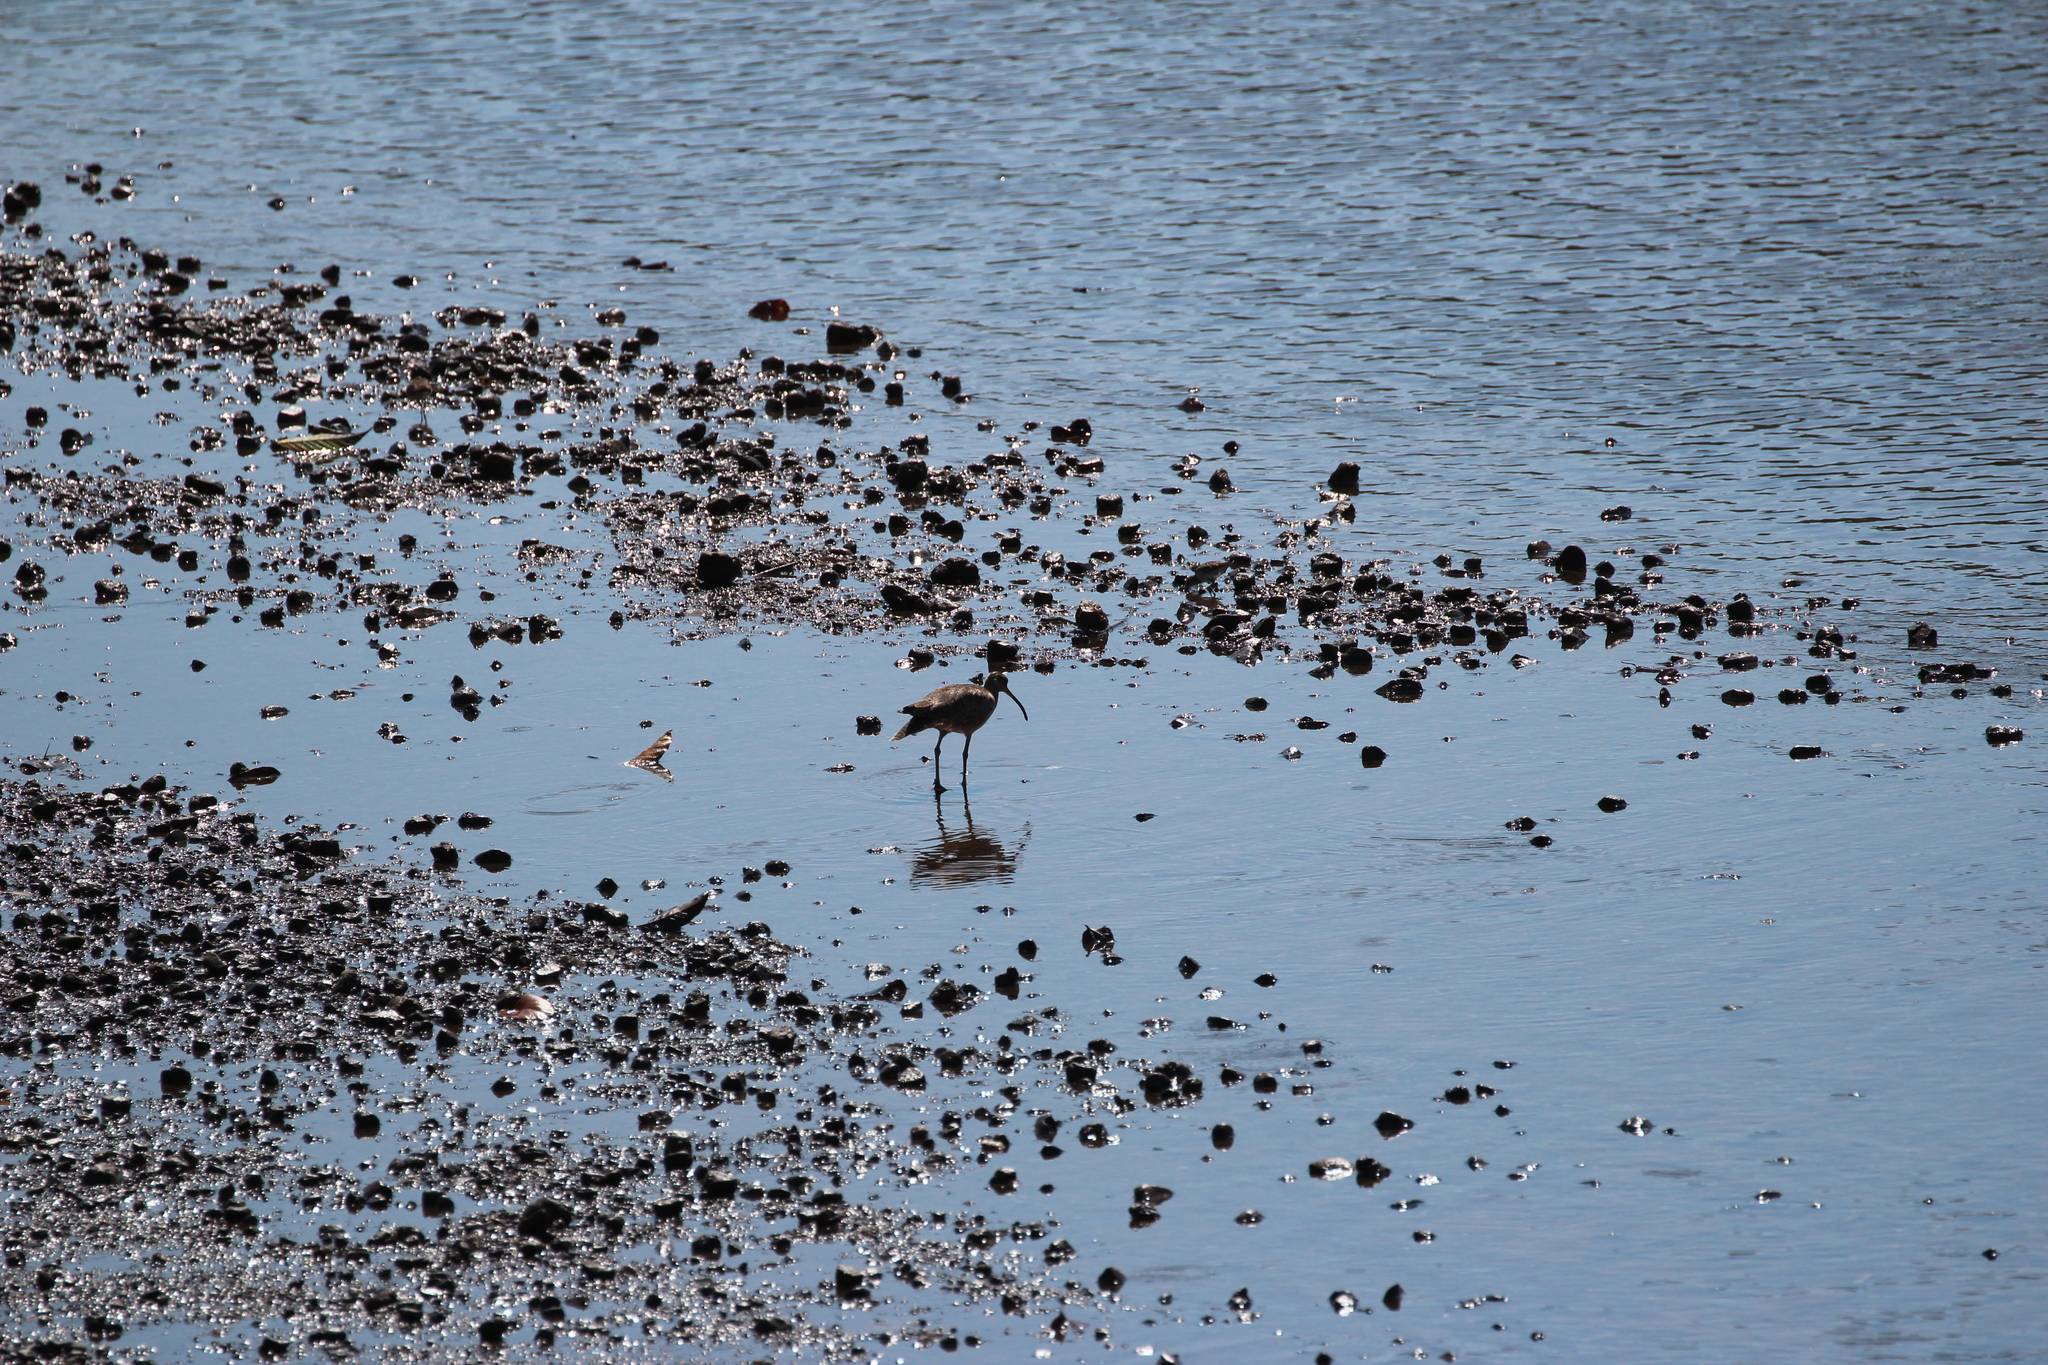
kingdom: Animalia
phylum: Chordata
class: Aves
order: Charadriiformes
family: Scolopacidae
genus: Numenius
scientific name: Numenius phaeopus
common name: Whimbrel
